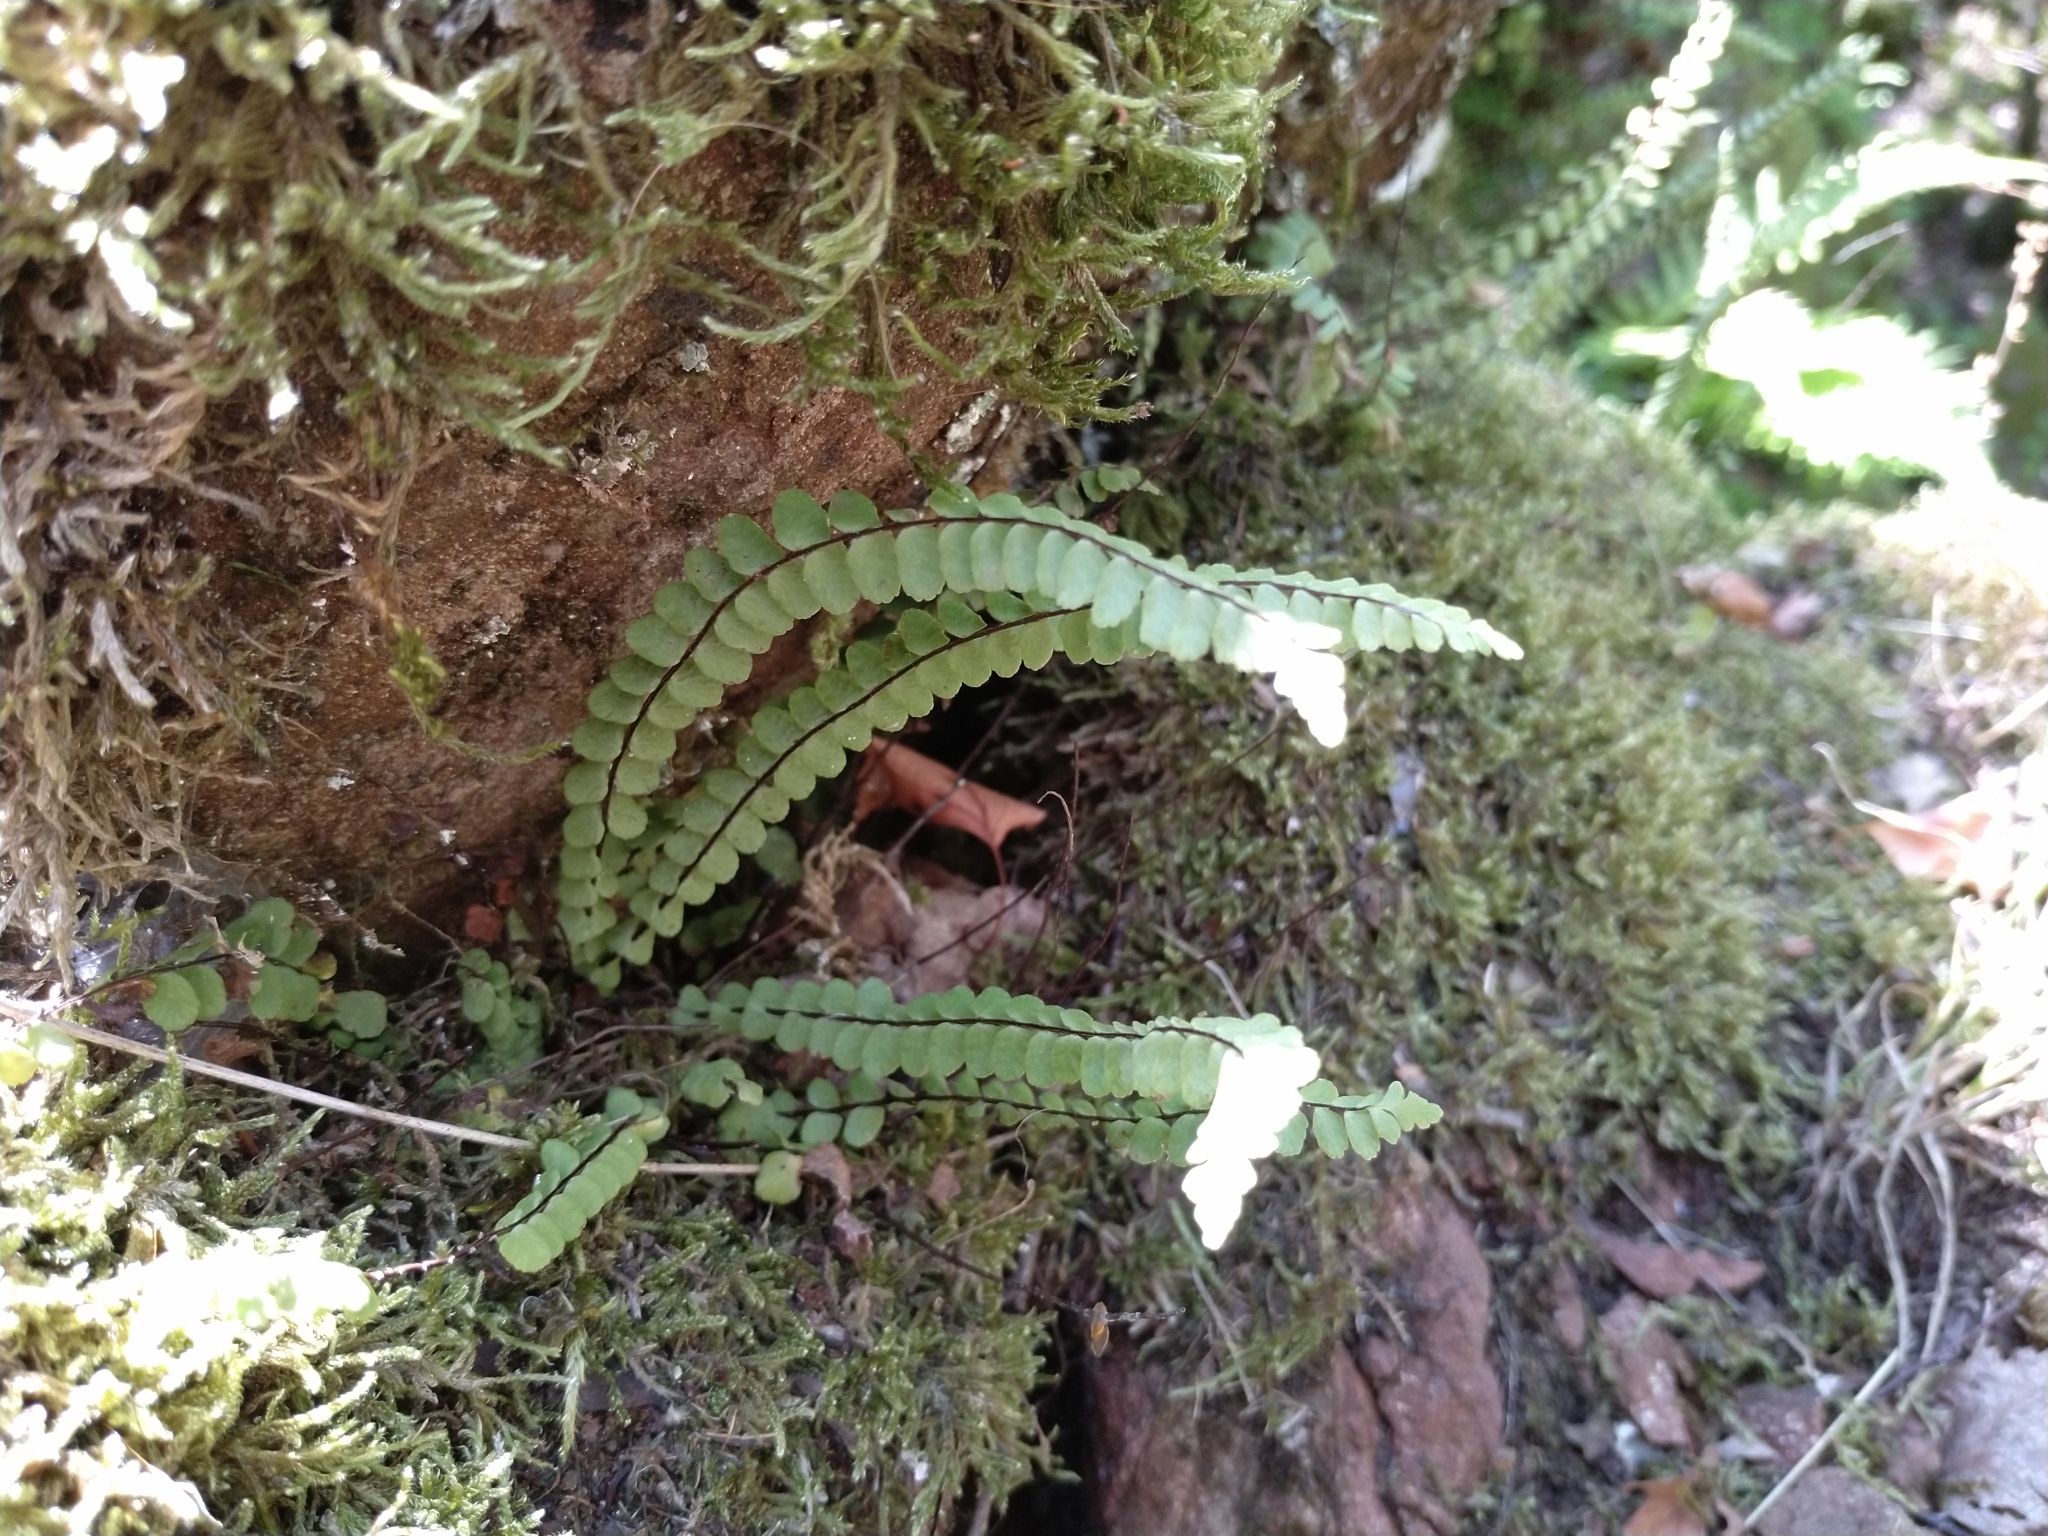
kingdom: Plantae
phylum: Tracheophyta
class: Polypodiopsida
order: Polypodiales
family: Aspleniaceae
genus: Asplenium
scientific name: Asplenium trichomanes
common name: Maidenhair spleenwort
